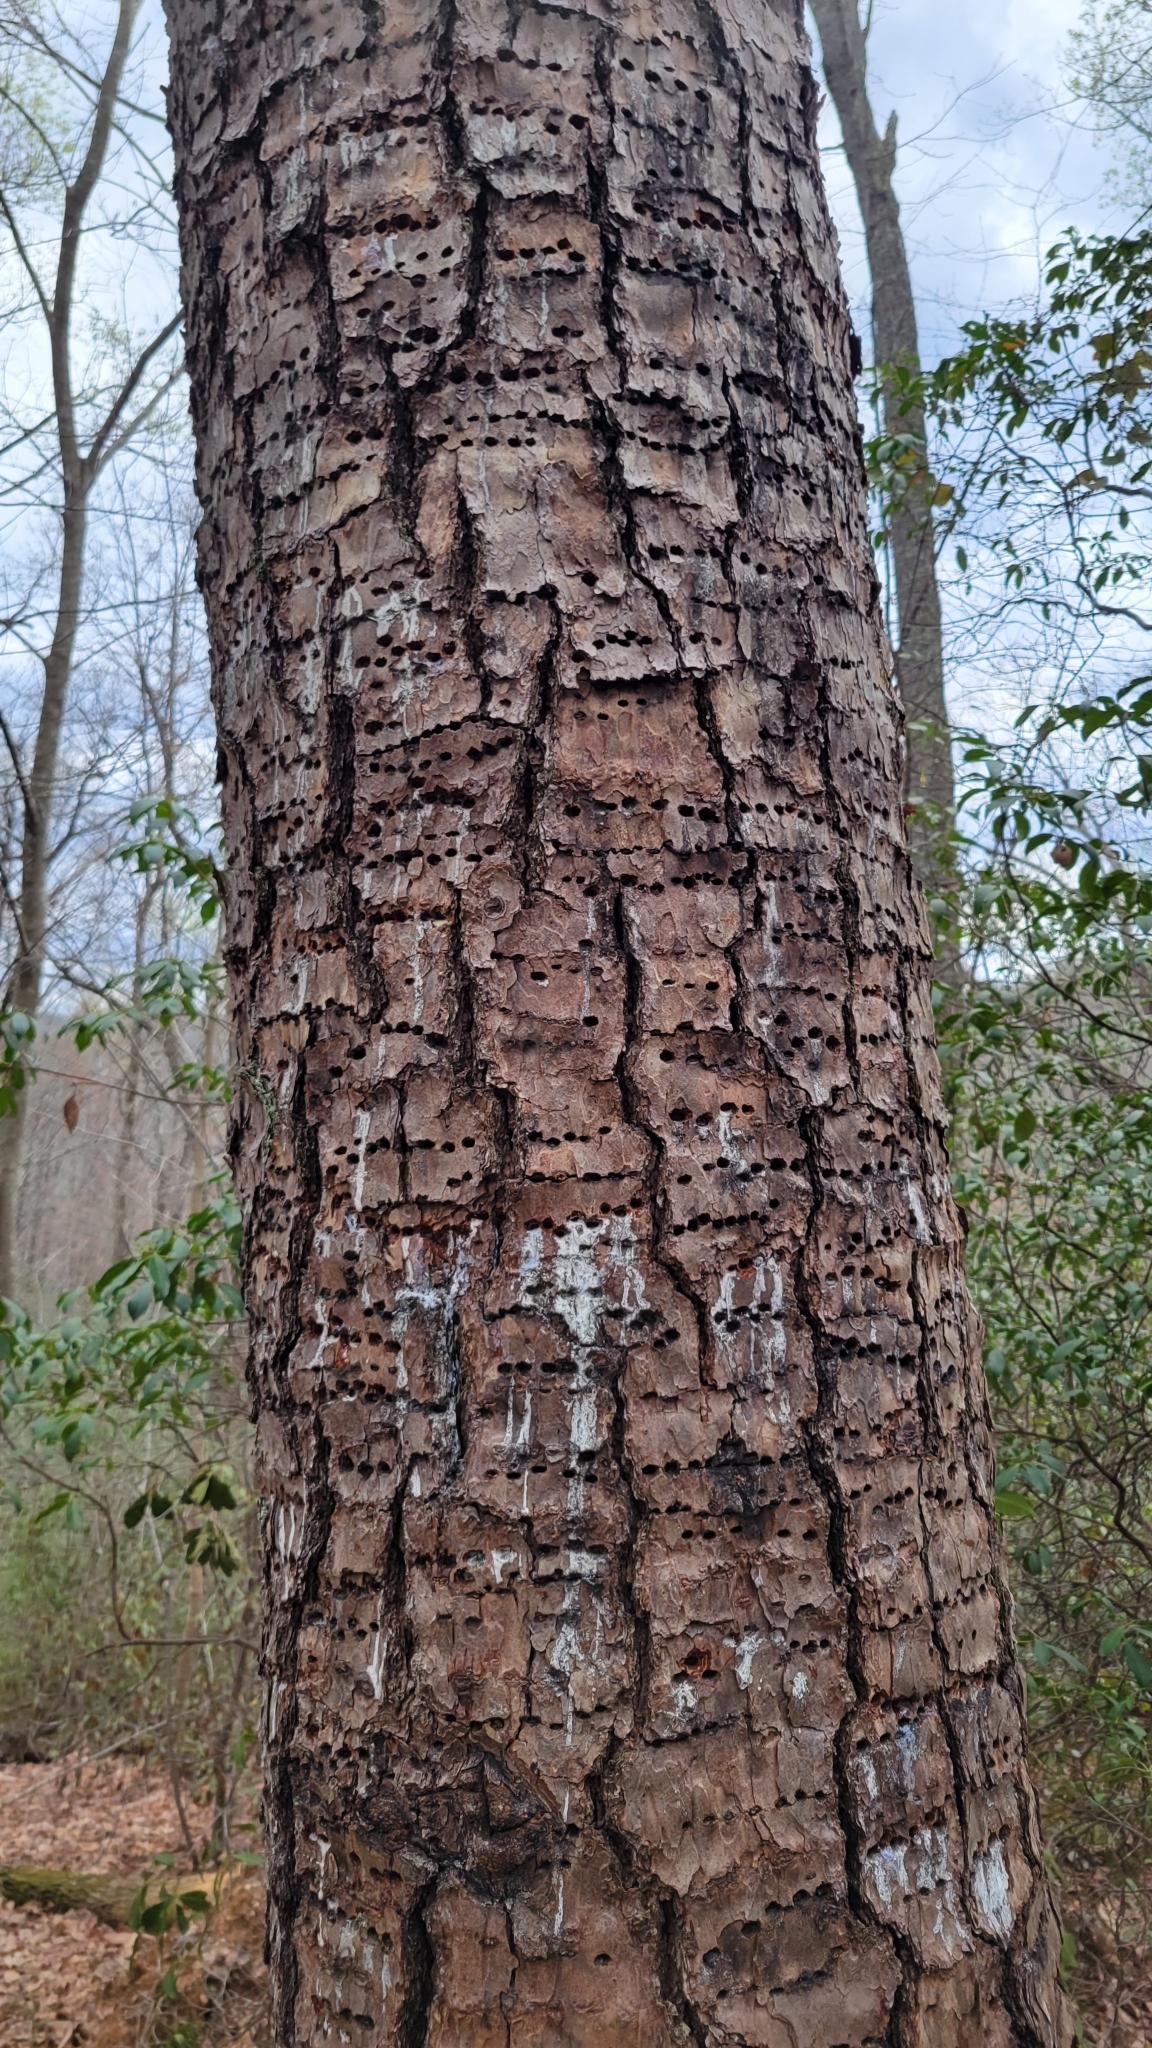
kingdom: Animalia
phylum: Chordata
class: Aves
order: Piciformes
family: Picidae
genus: Sphyrapicus
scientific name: Sphyrapicus varius
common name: Yellow-bellied sapsucker
